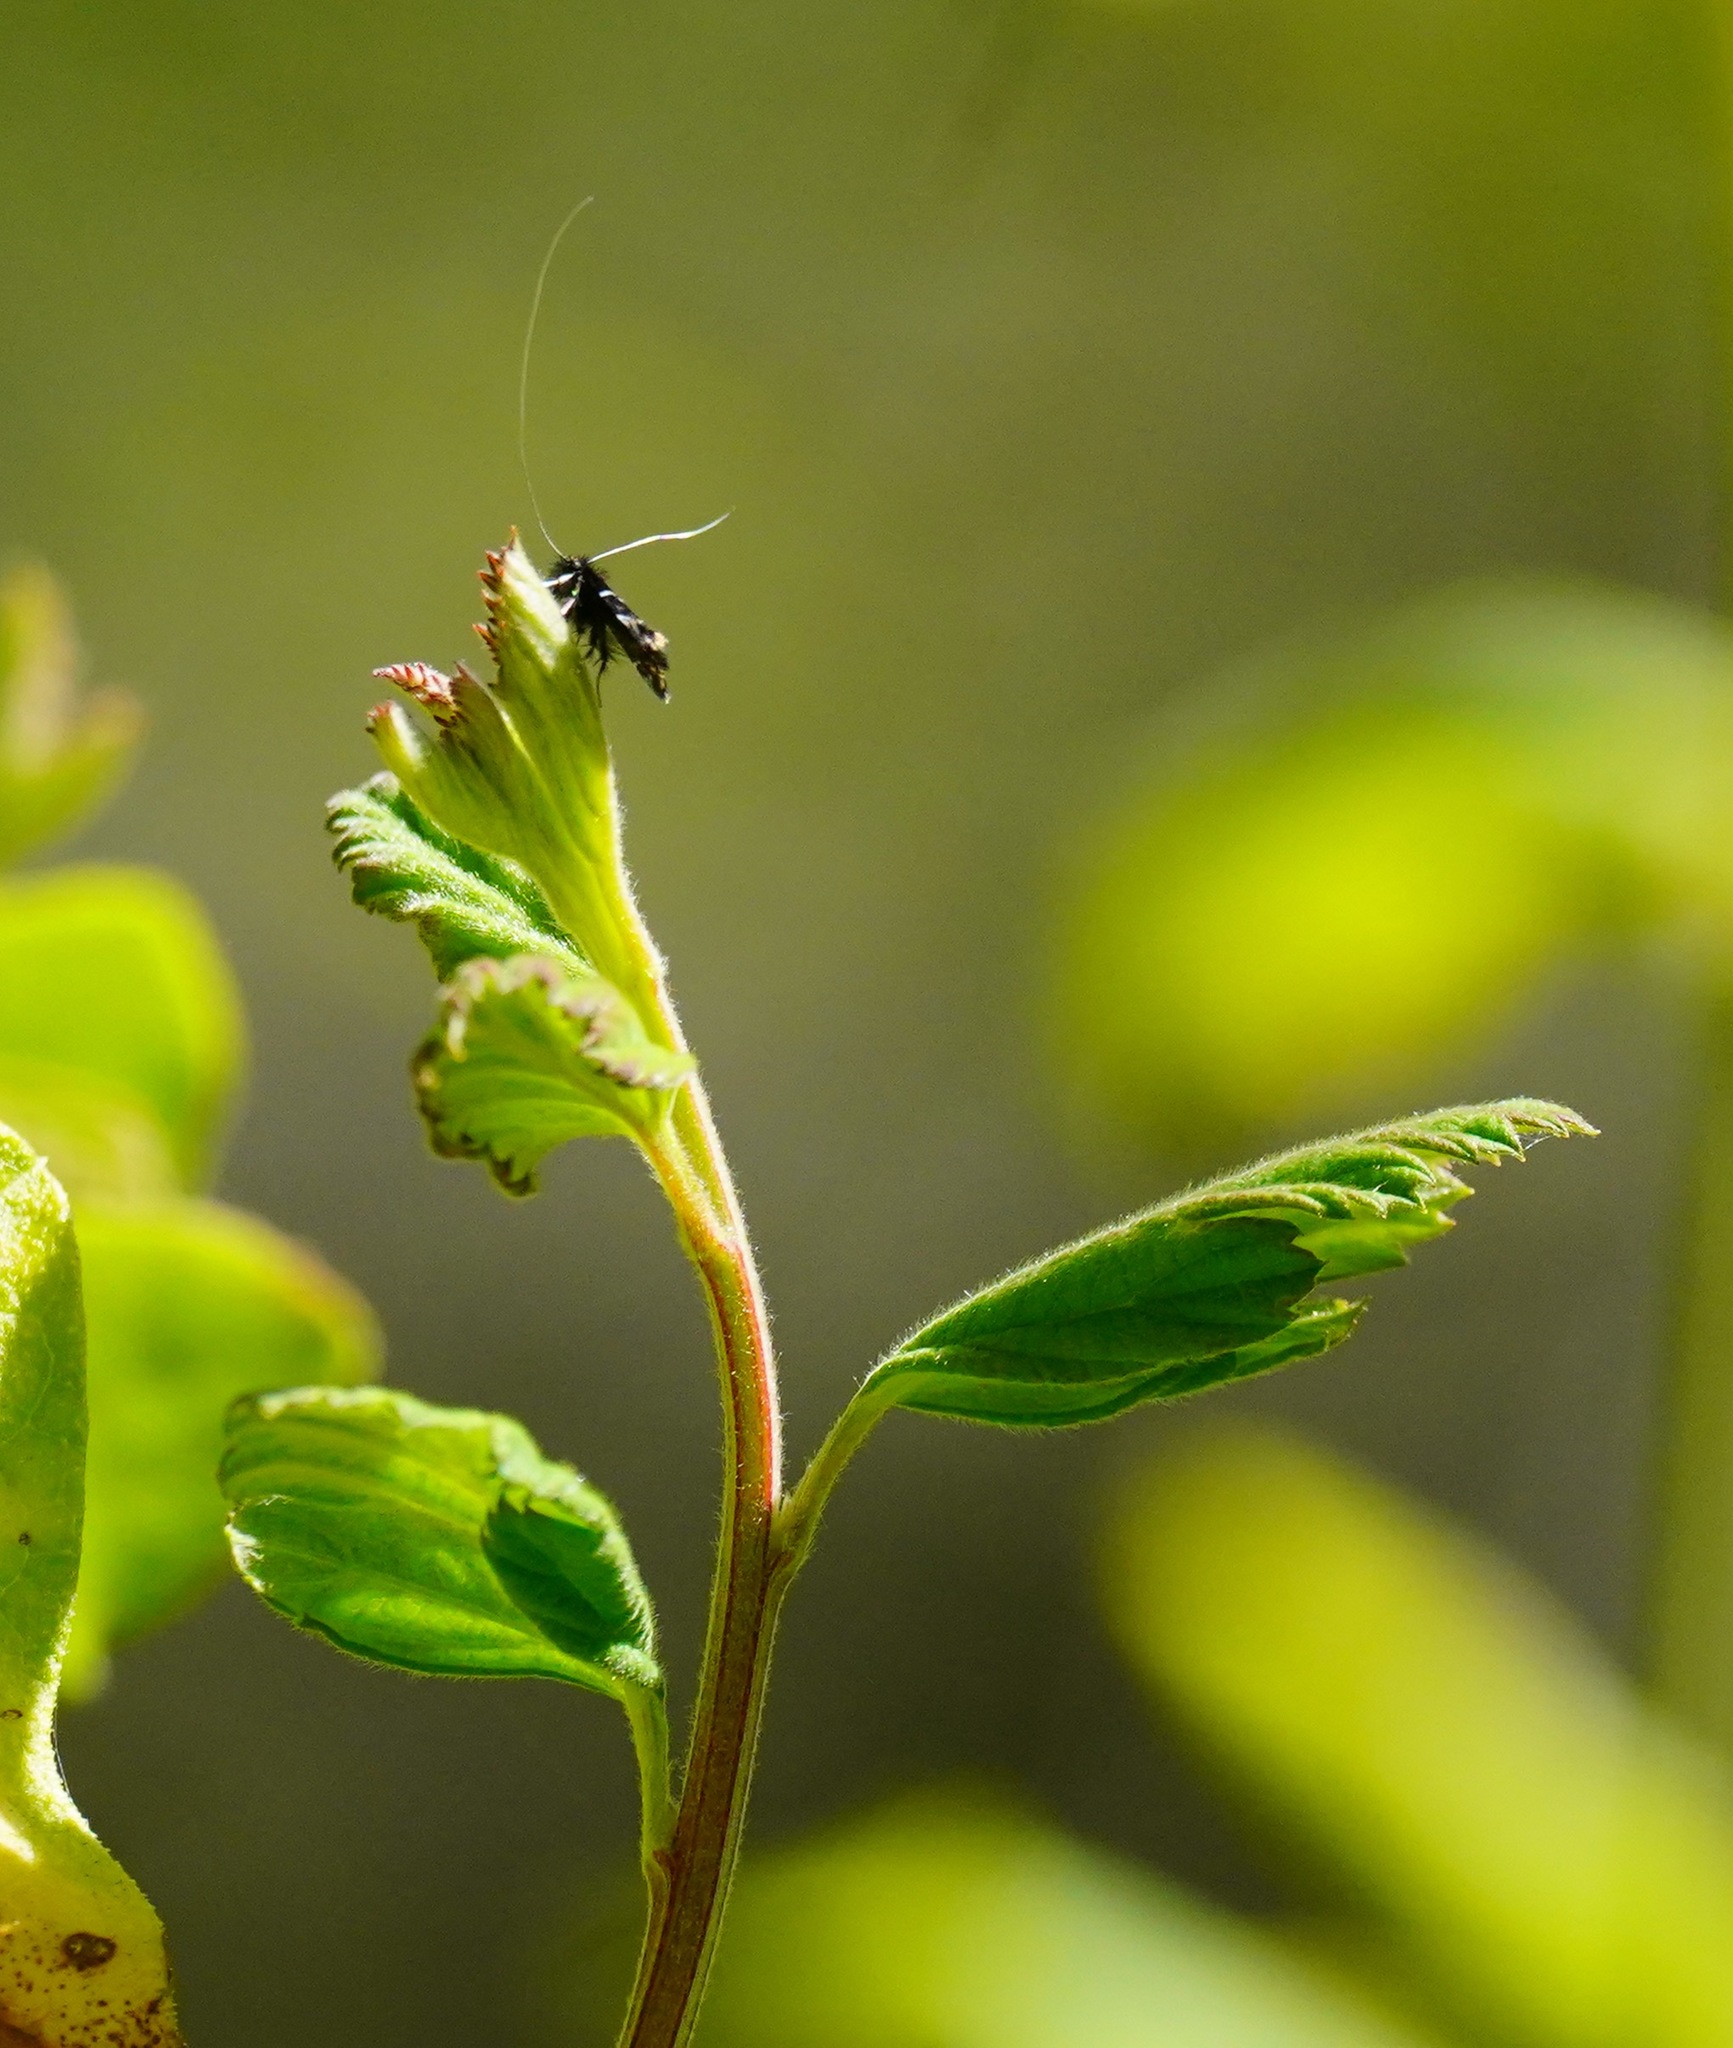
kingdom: Animalia
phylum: Arthropoda
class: Insecta
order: Lepidoptera
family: Adelidae
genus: Adela
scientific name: Adela septentrionella
